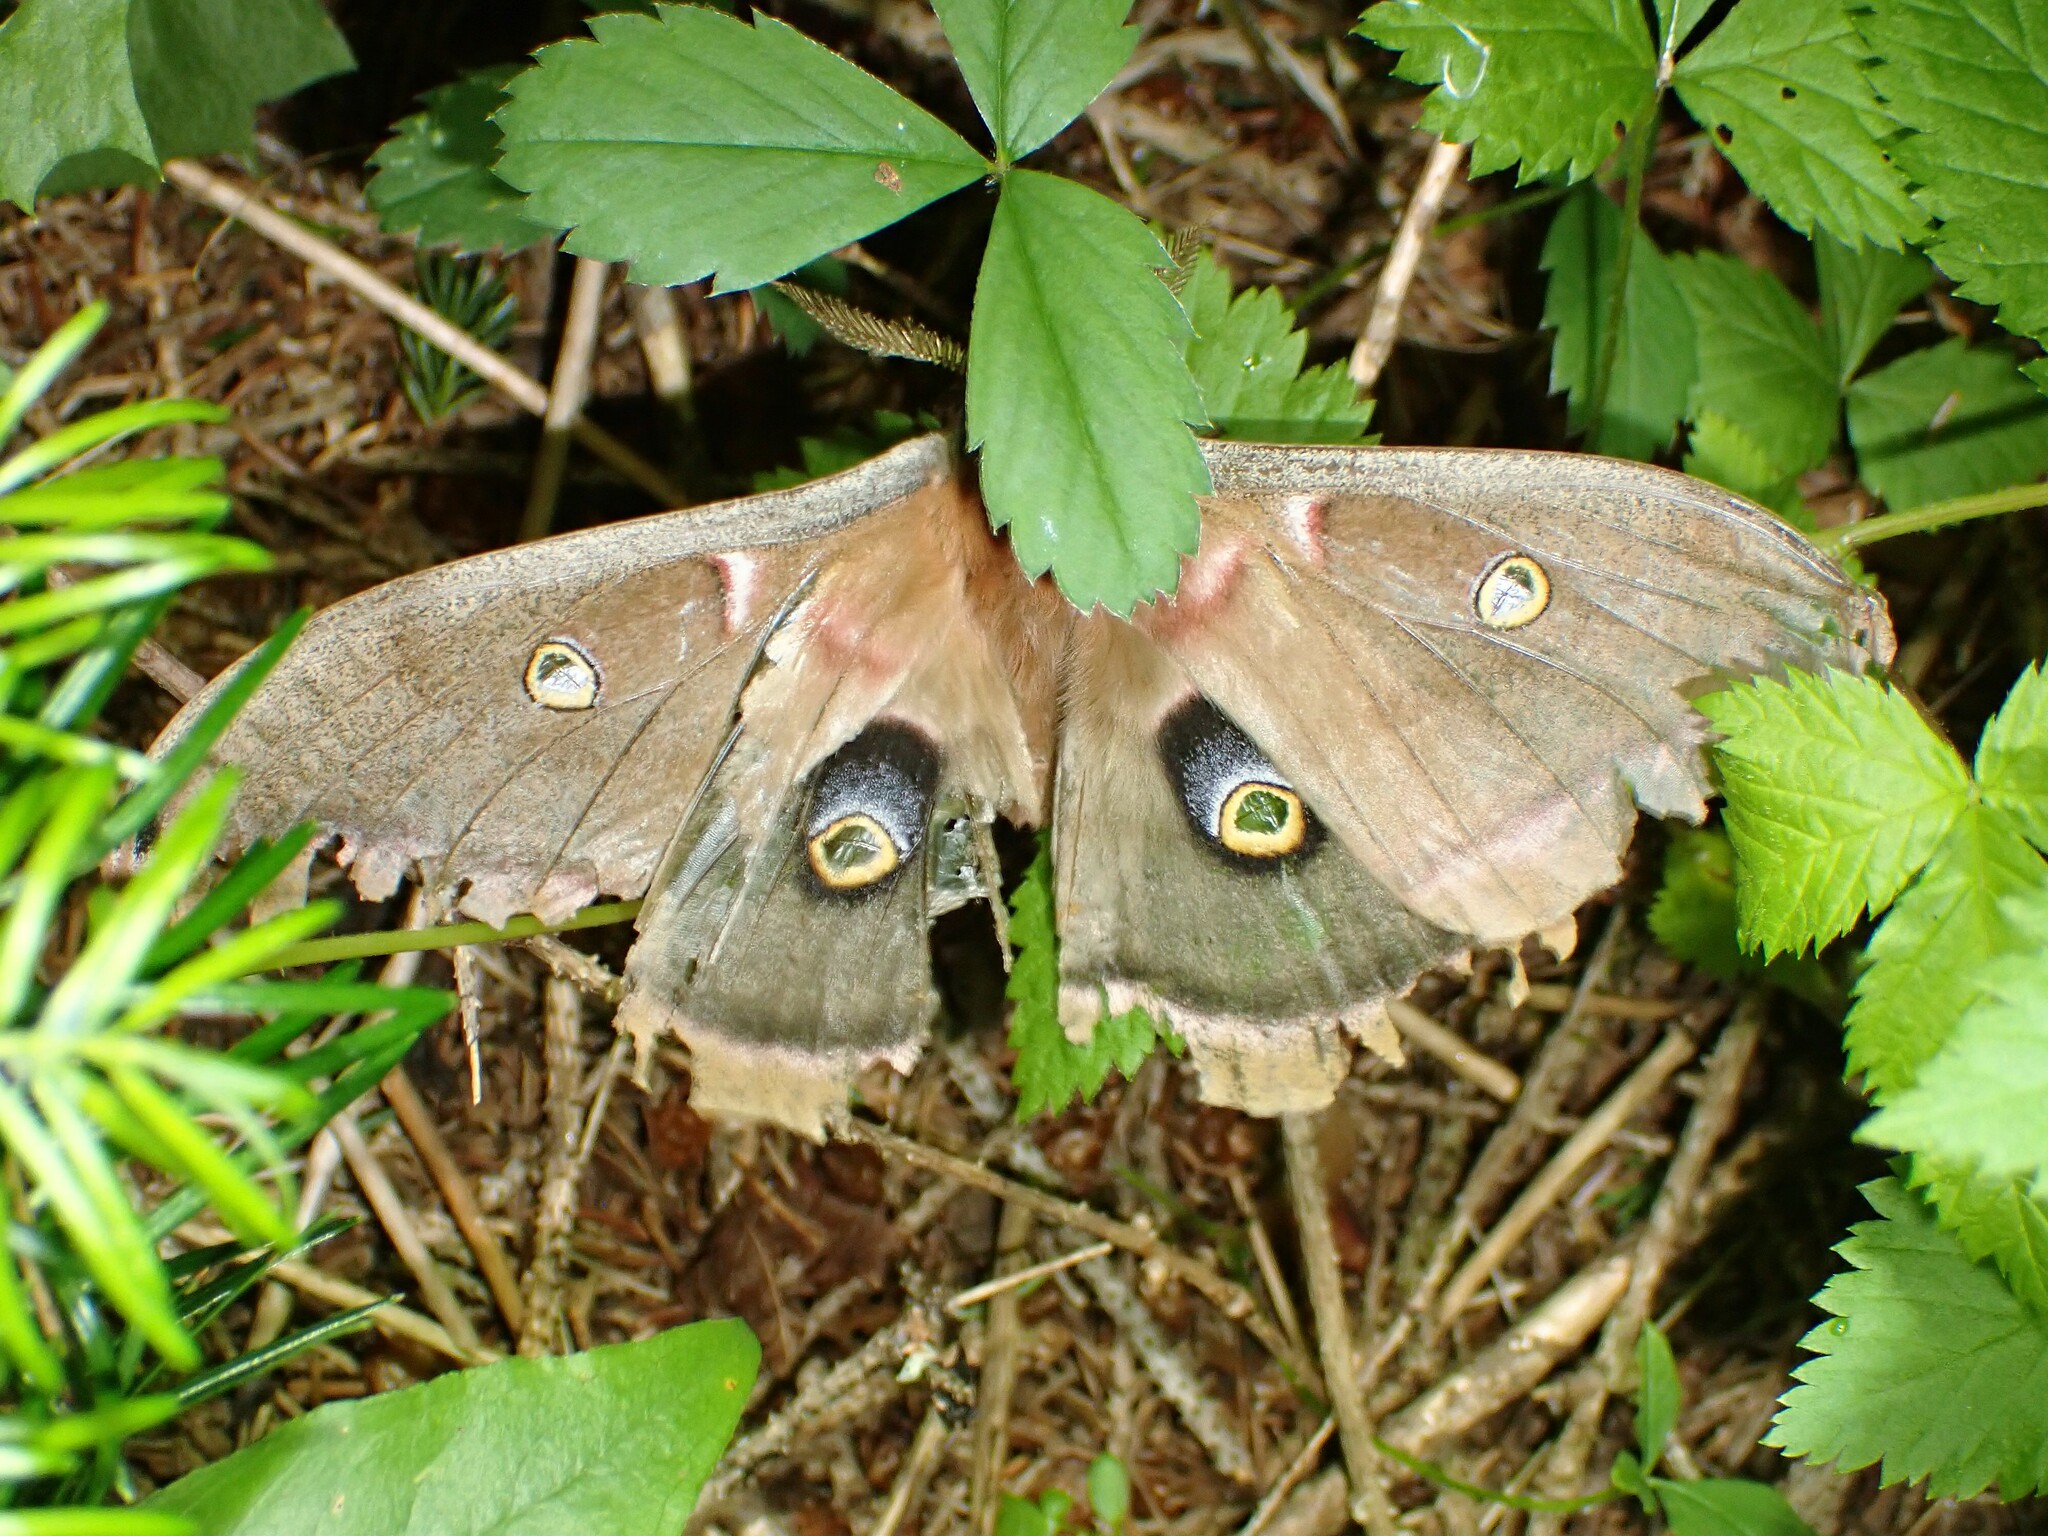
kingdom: Animalia
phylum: Arthropoda
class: Insecta
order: Lepidoptera
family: Saturniidae
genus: Antheraea
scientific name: Antheraea polyphemus
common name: Polyphemus moth
